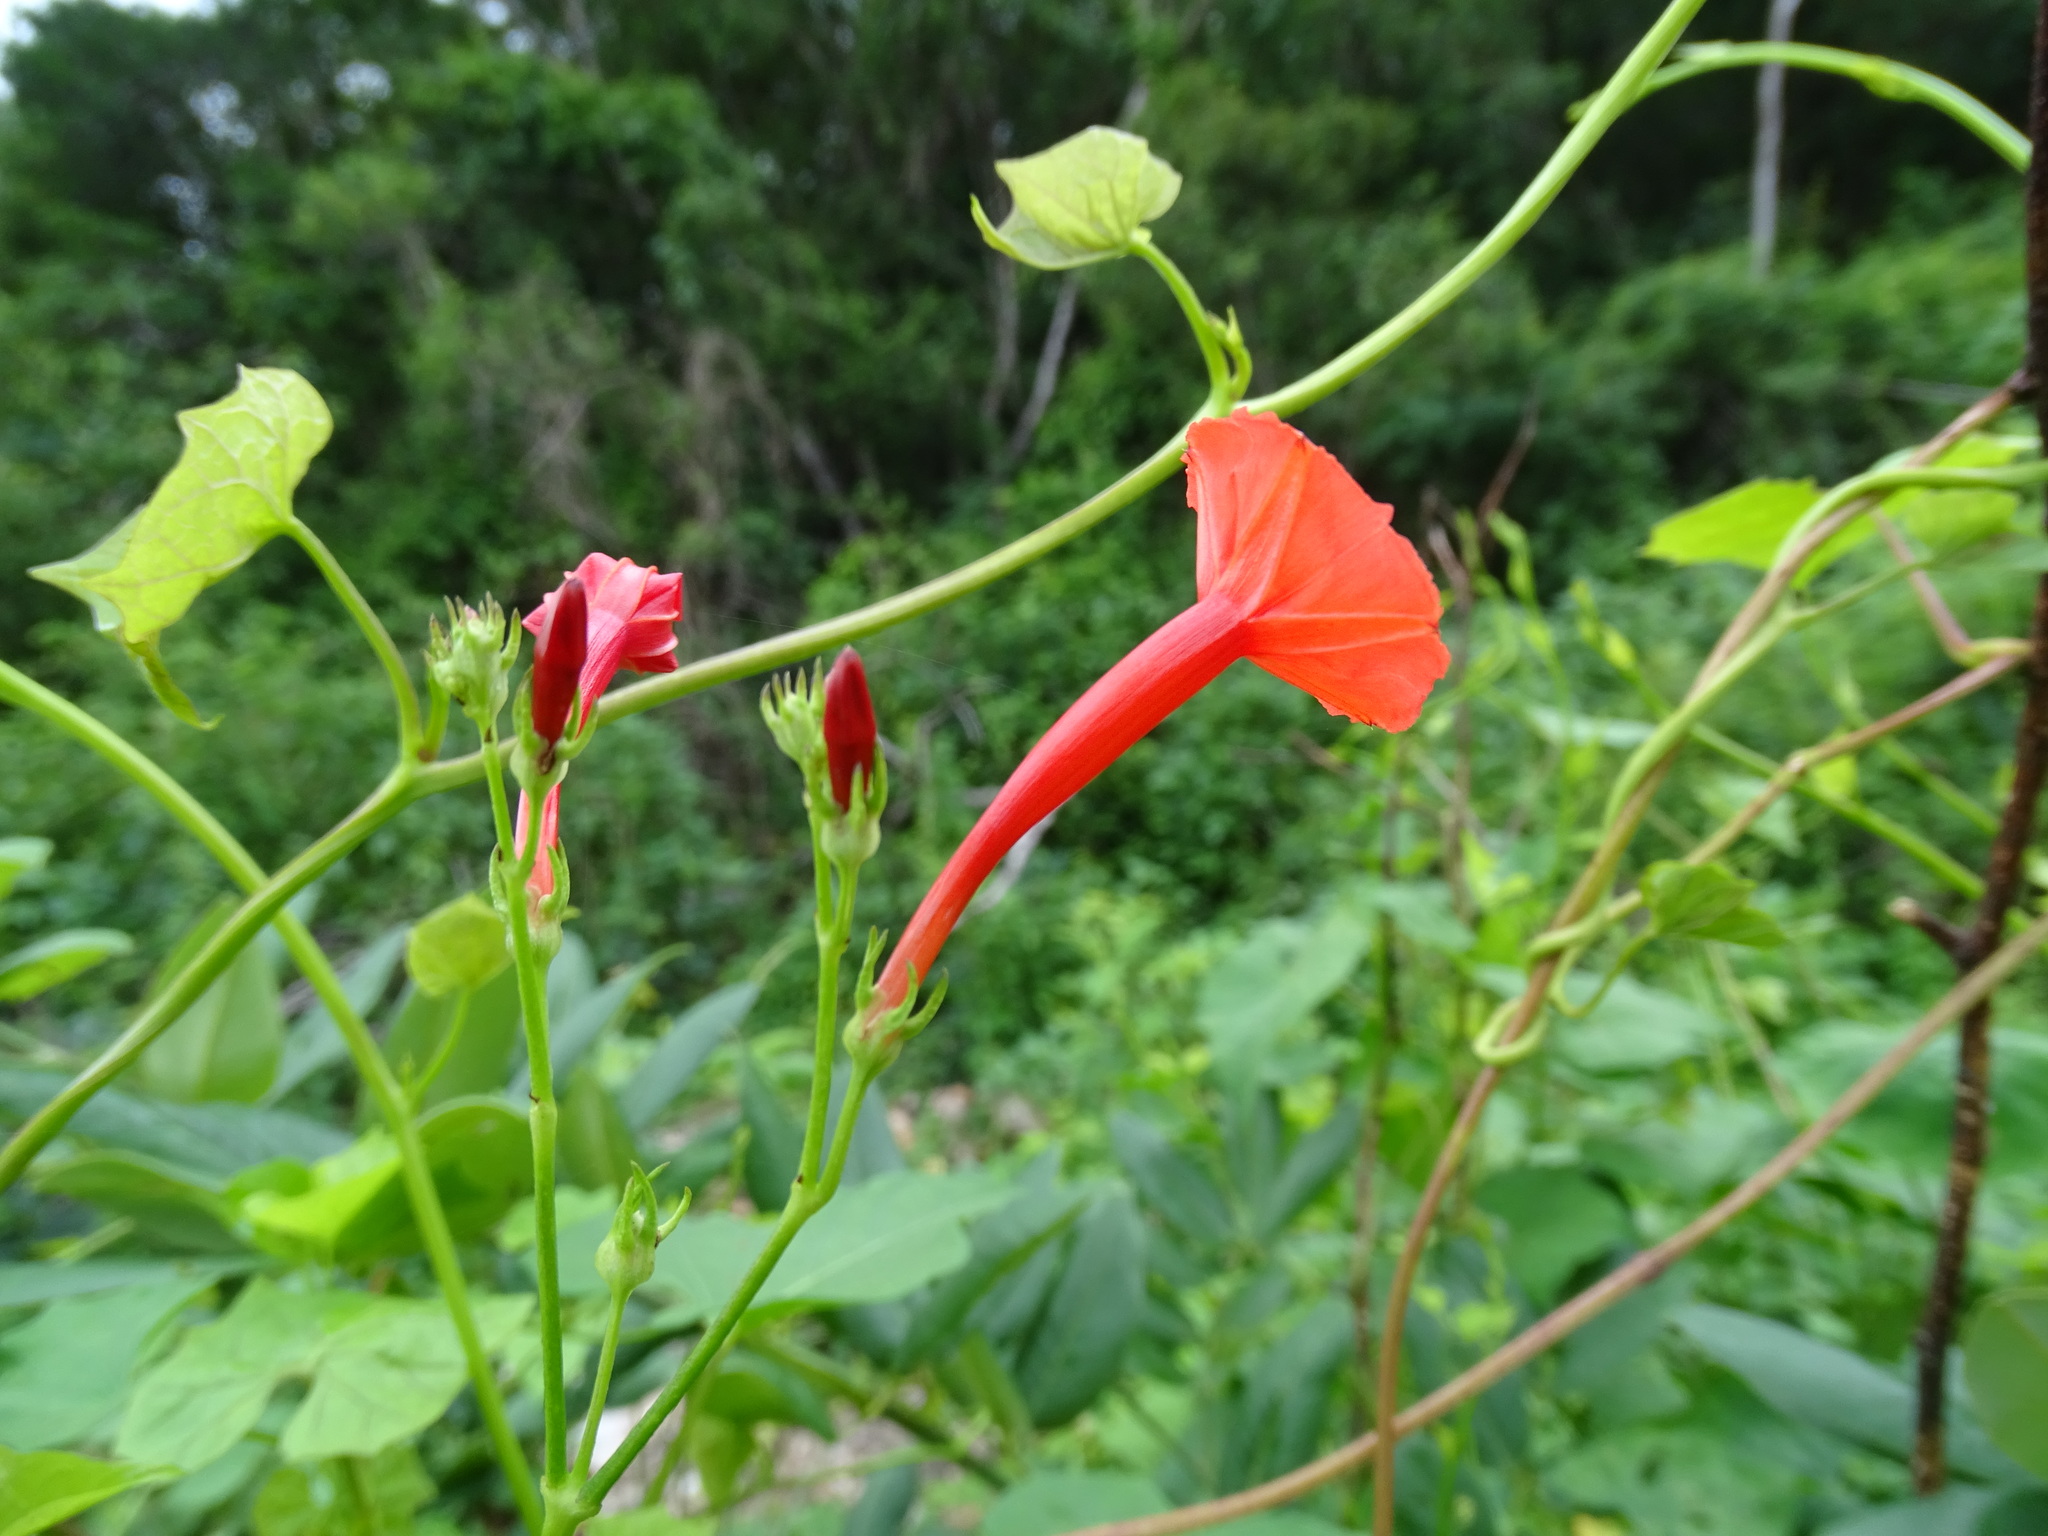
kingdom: Plantae
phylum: Tracheophyta
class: Magnoliopsida
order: Solanales
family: Convolvulaceae
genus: Ipomoea
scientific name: Ipomoea hederifolia
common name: Ivy-leaf morning-glory
